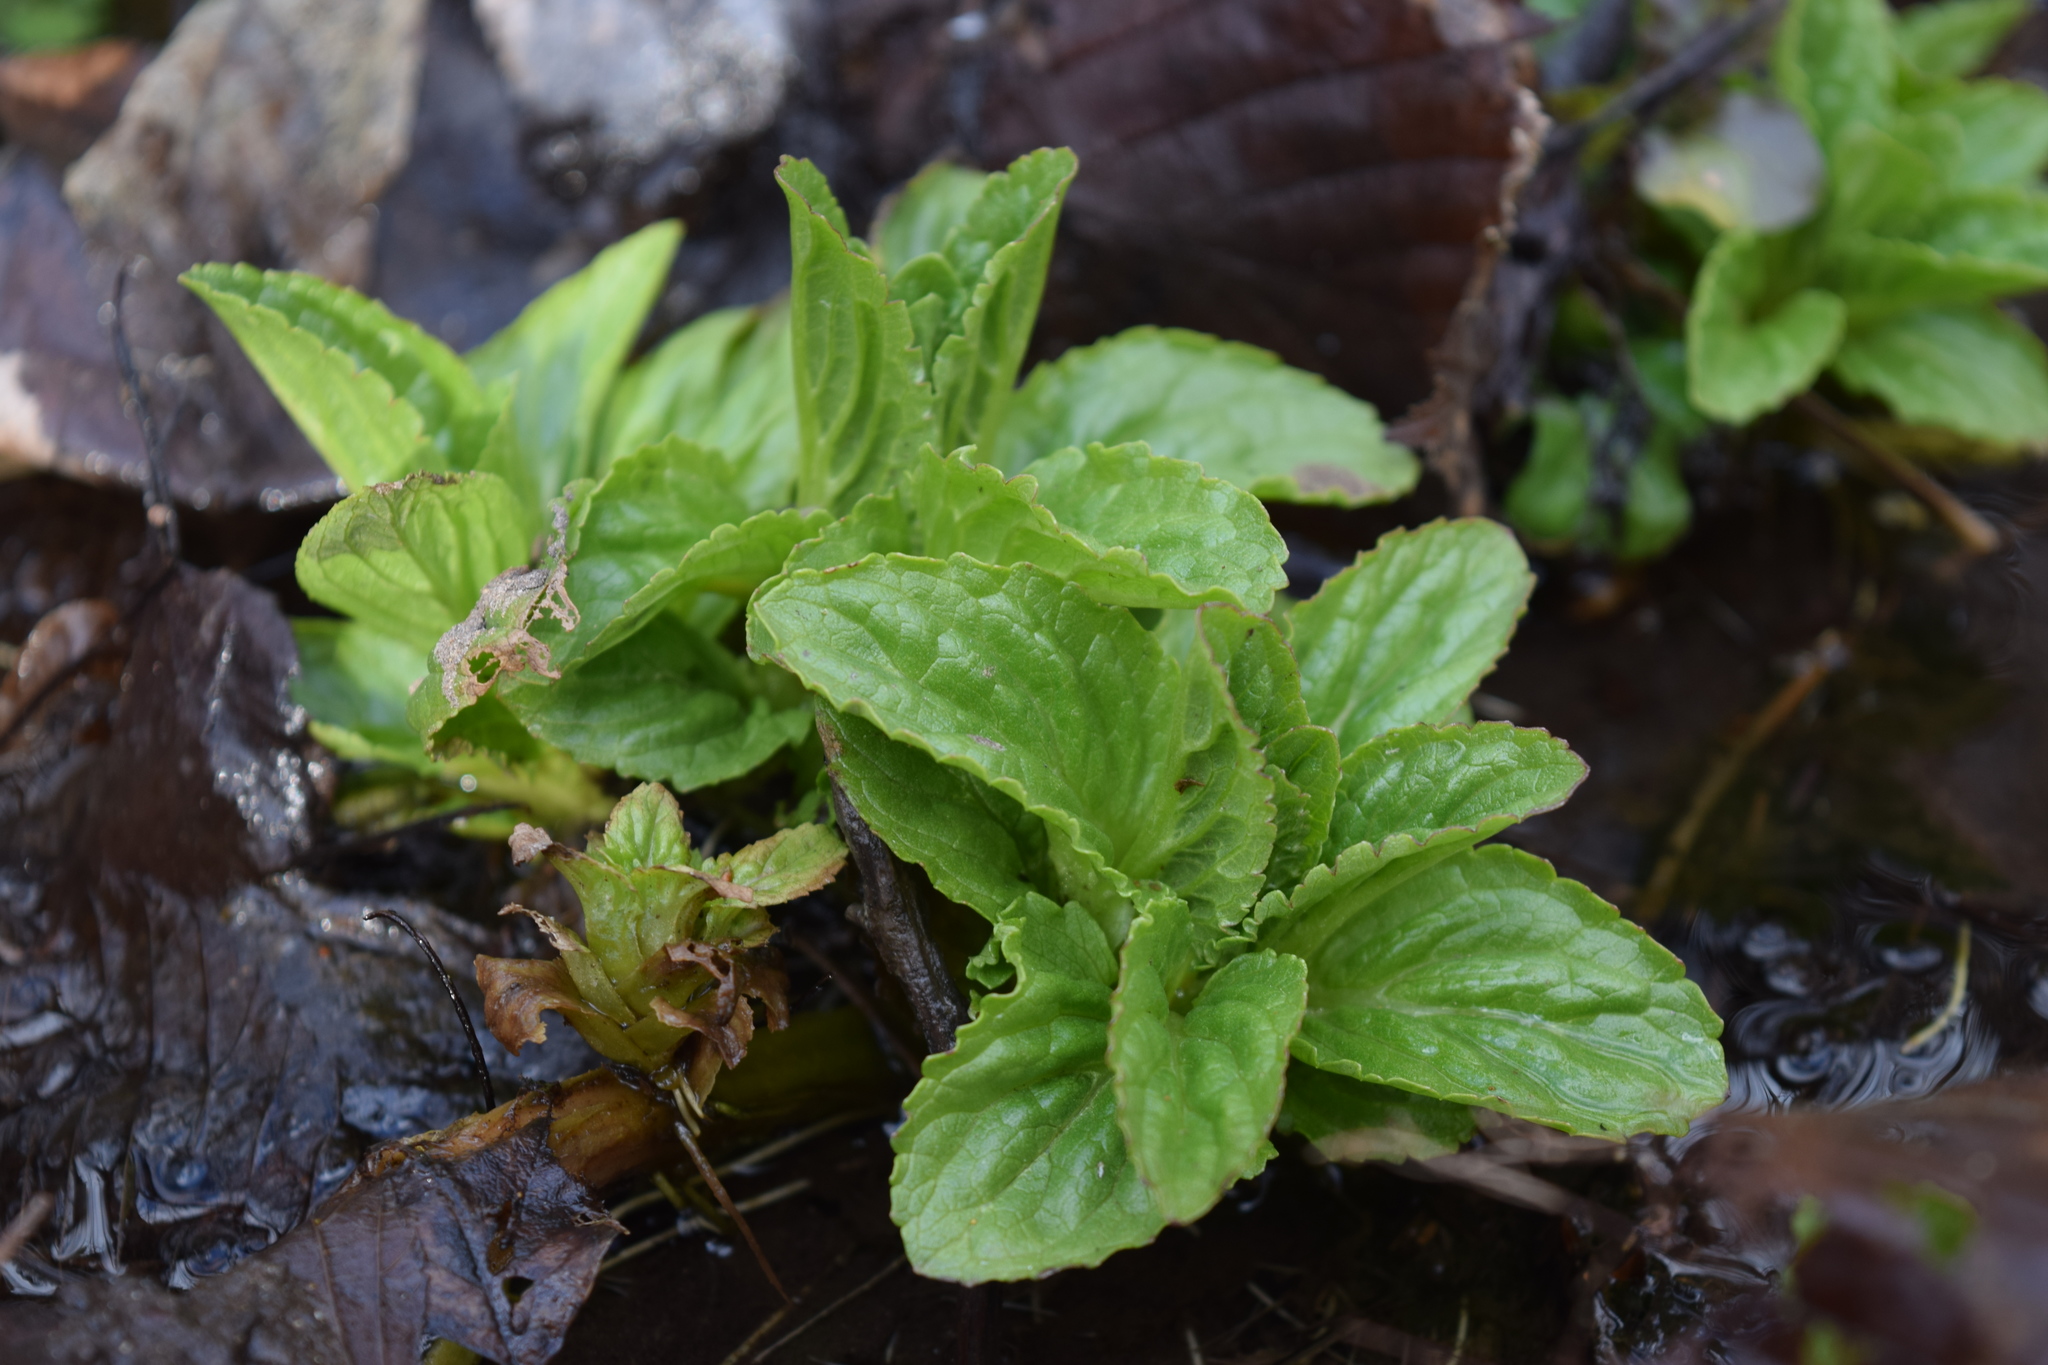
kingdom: Plantae
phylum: Tracheophyta
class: Magnoliopsida
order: Lamiales
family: Plantaginaceae
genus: Veronica
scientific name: Veronica beccabunga
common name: Brooklime
